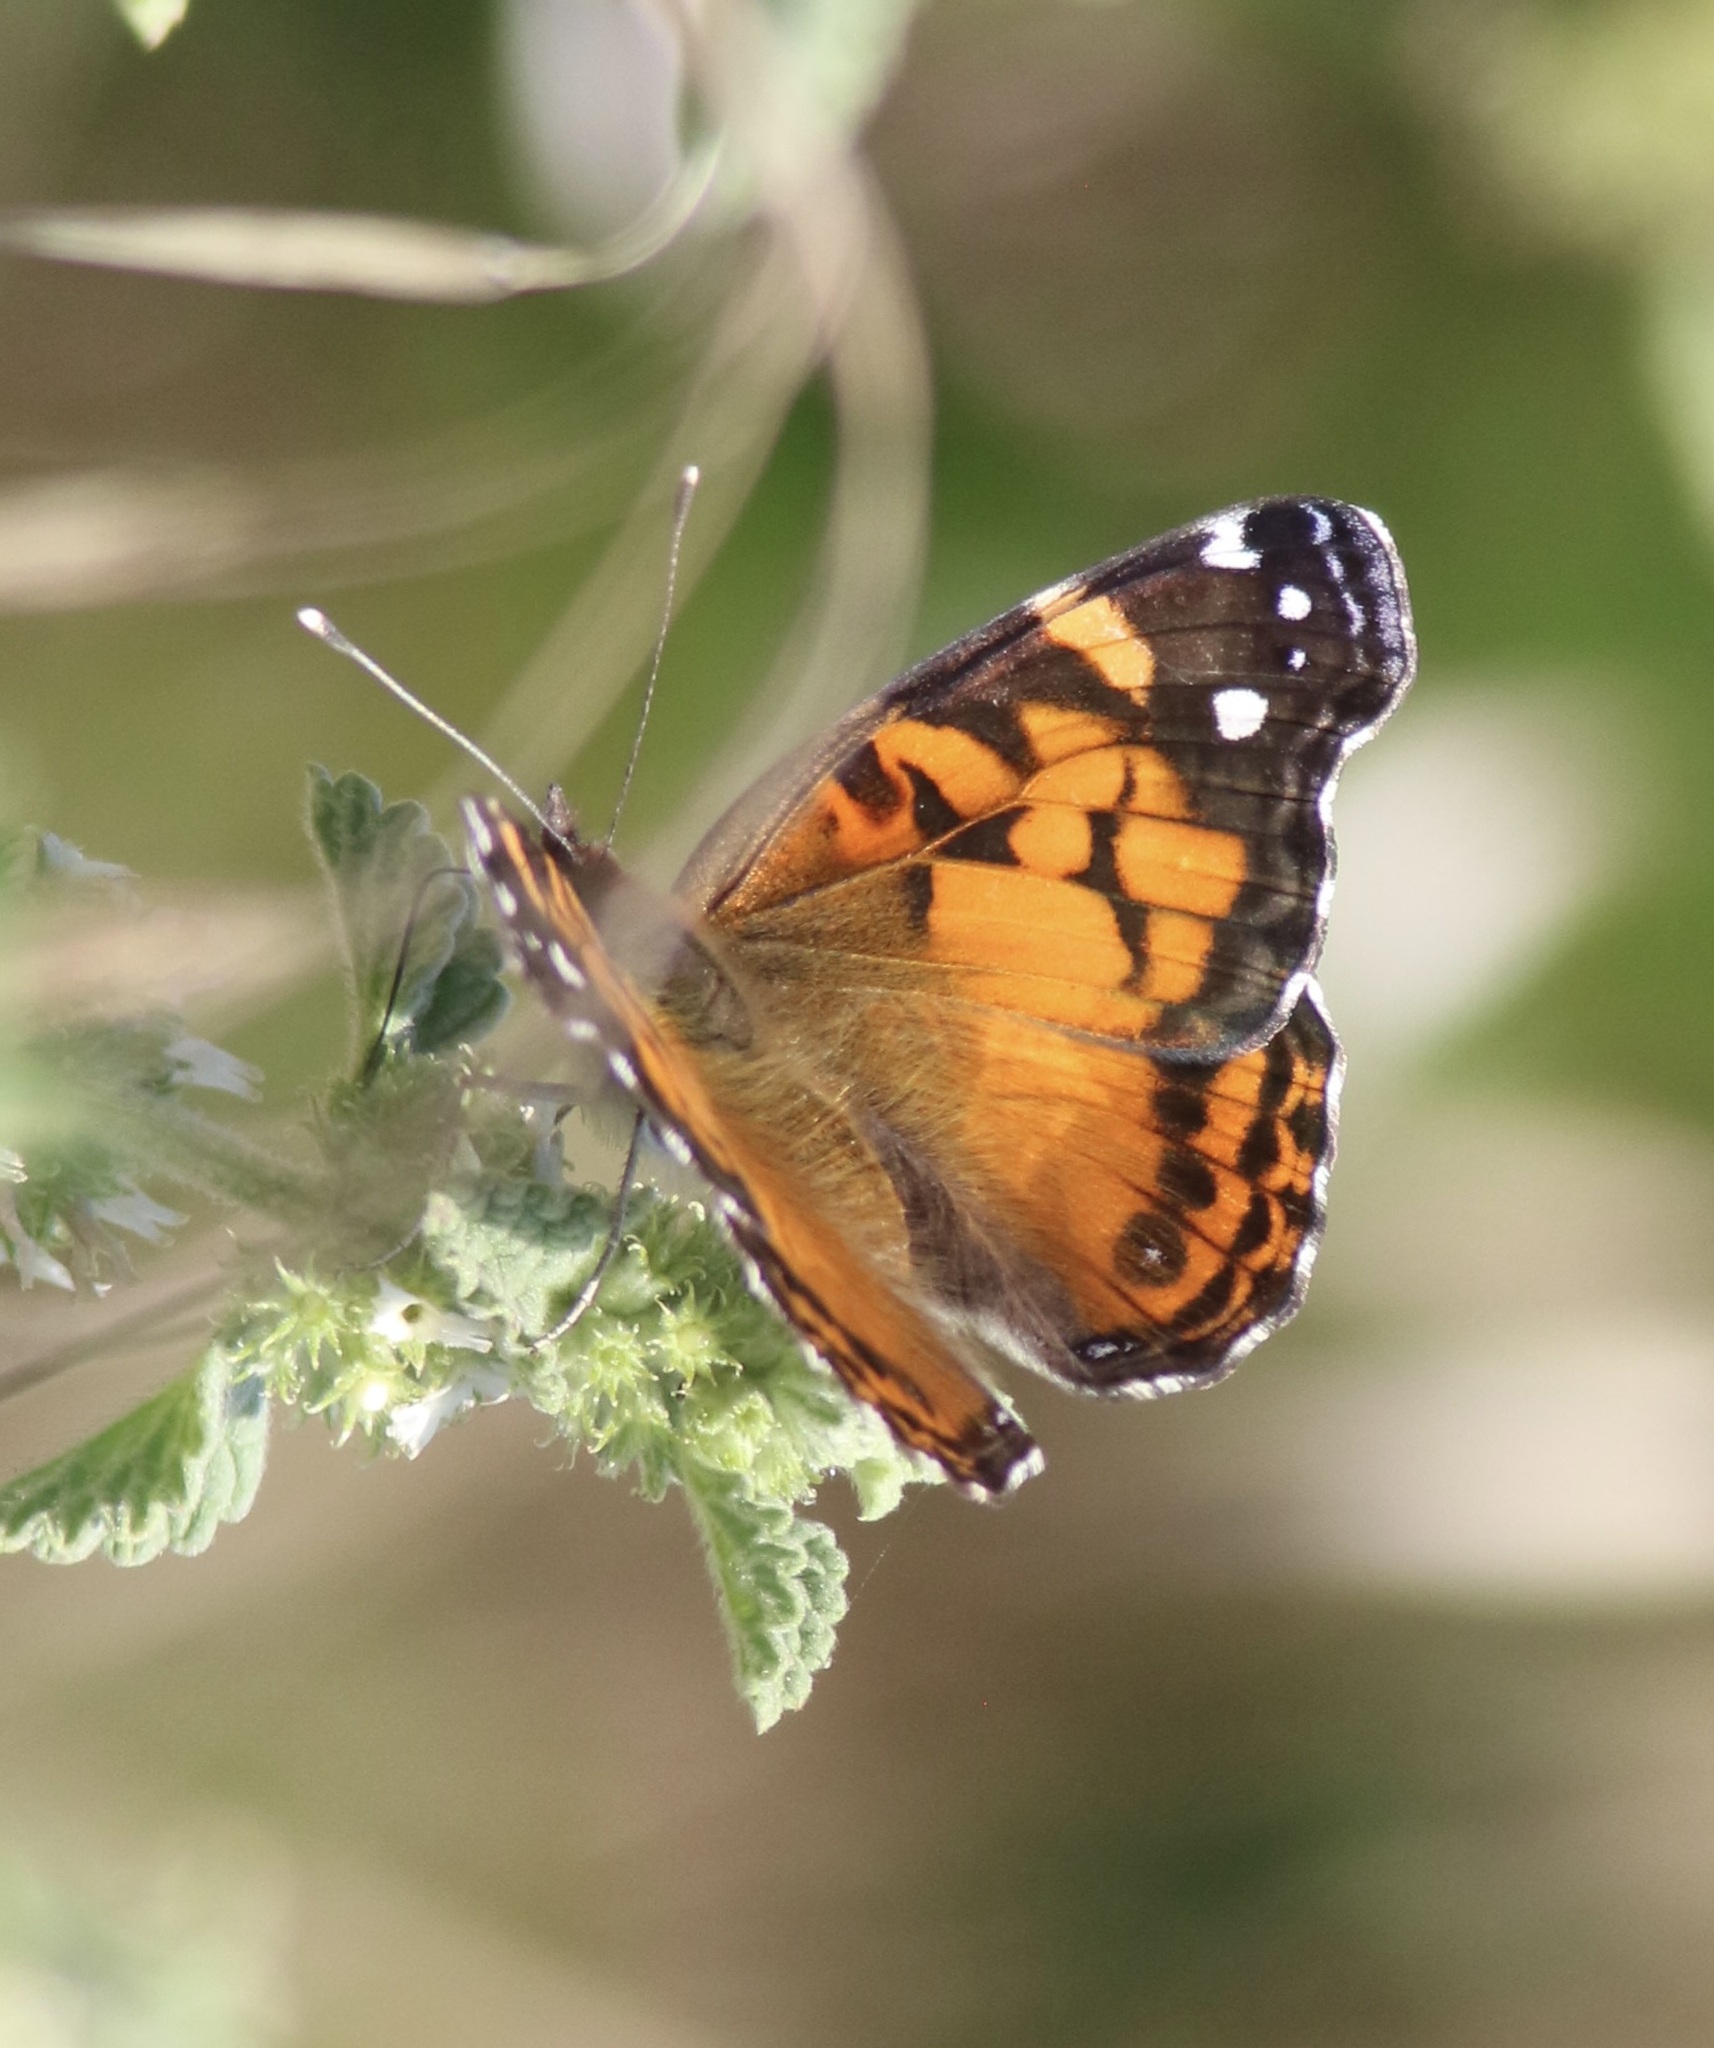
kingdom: Animalia
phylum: Arthropoda
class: Insecta
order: Lepidoptera
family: Nymphalidae
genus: Vanessa
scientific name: Vanessa virginiensis
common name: American lady
